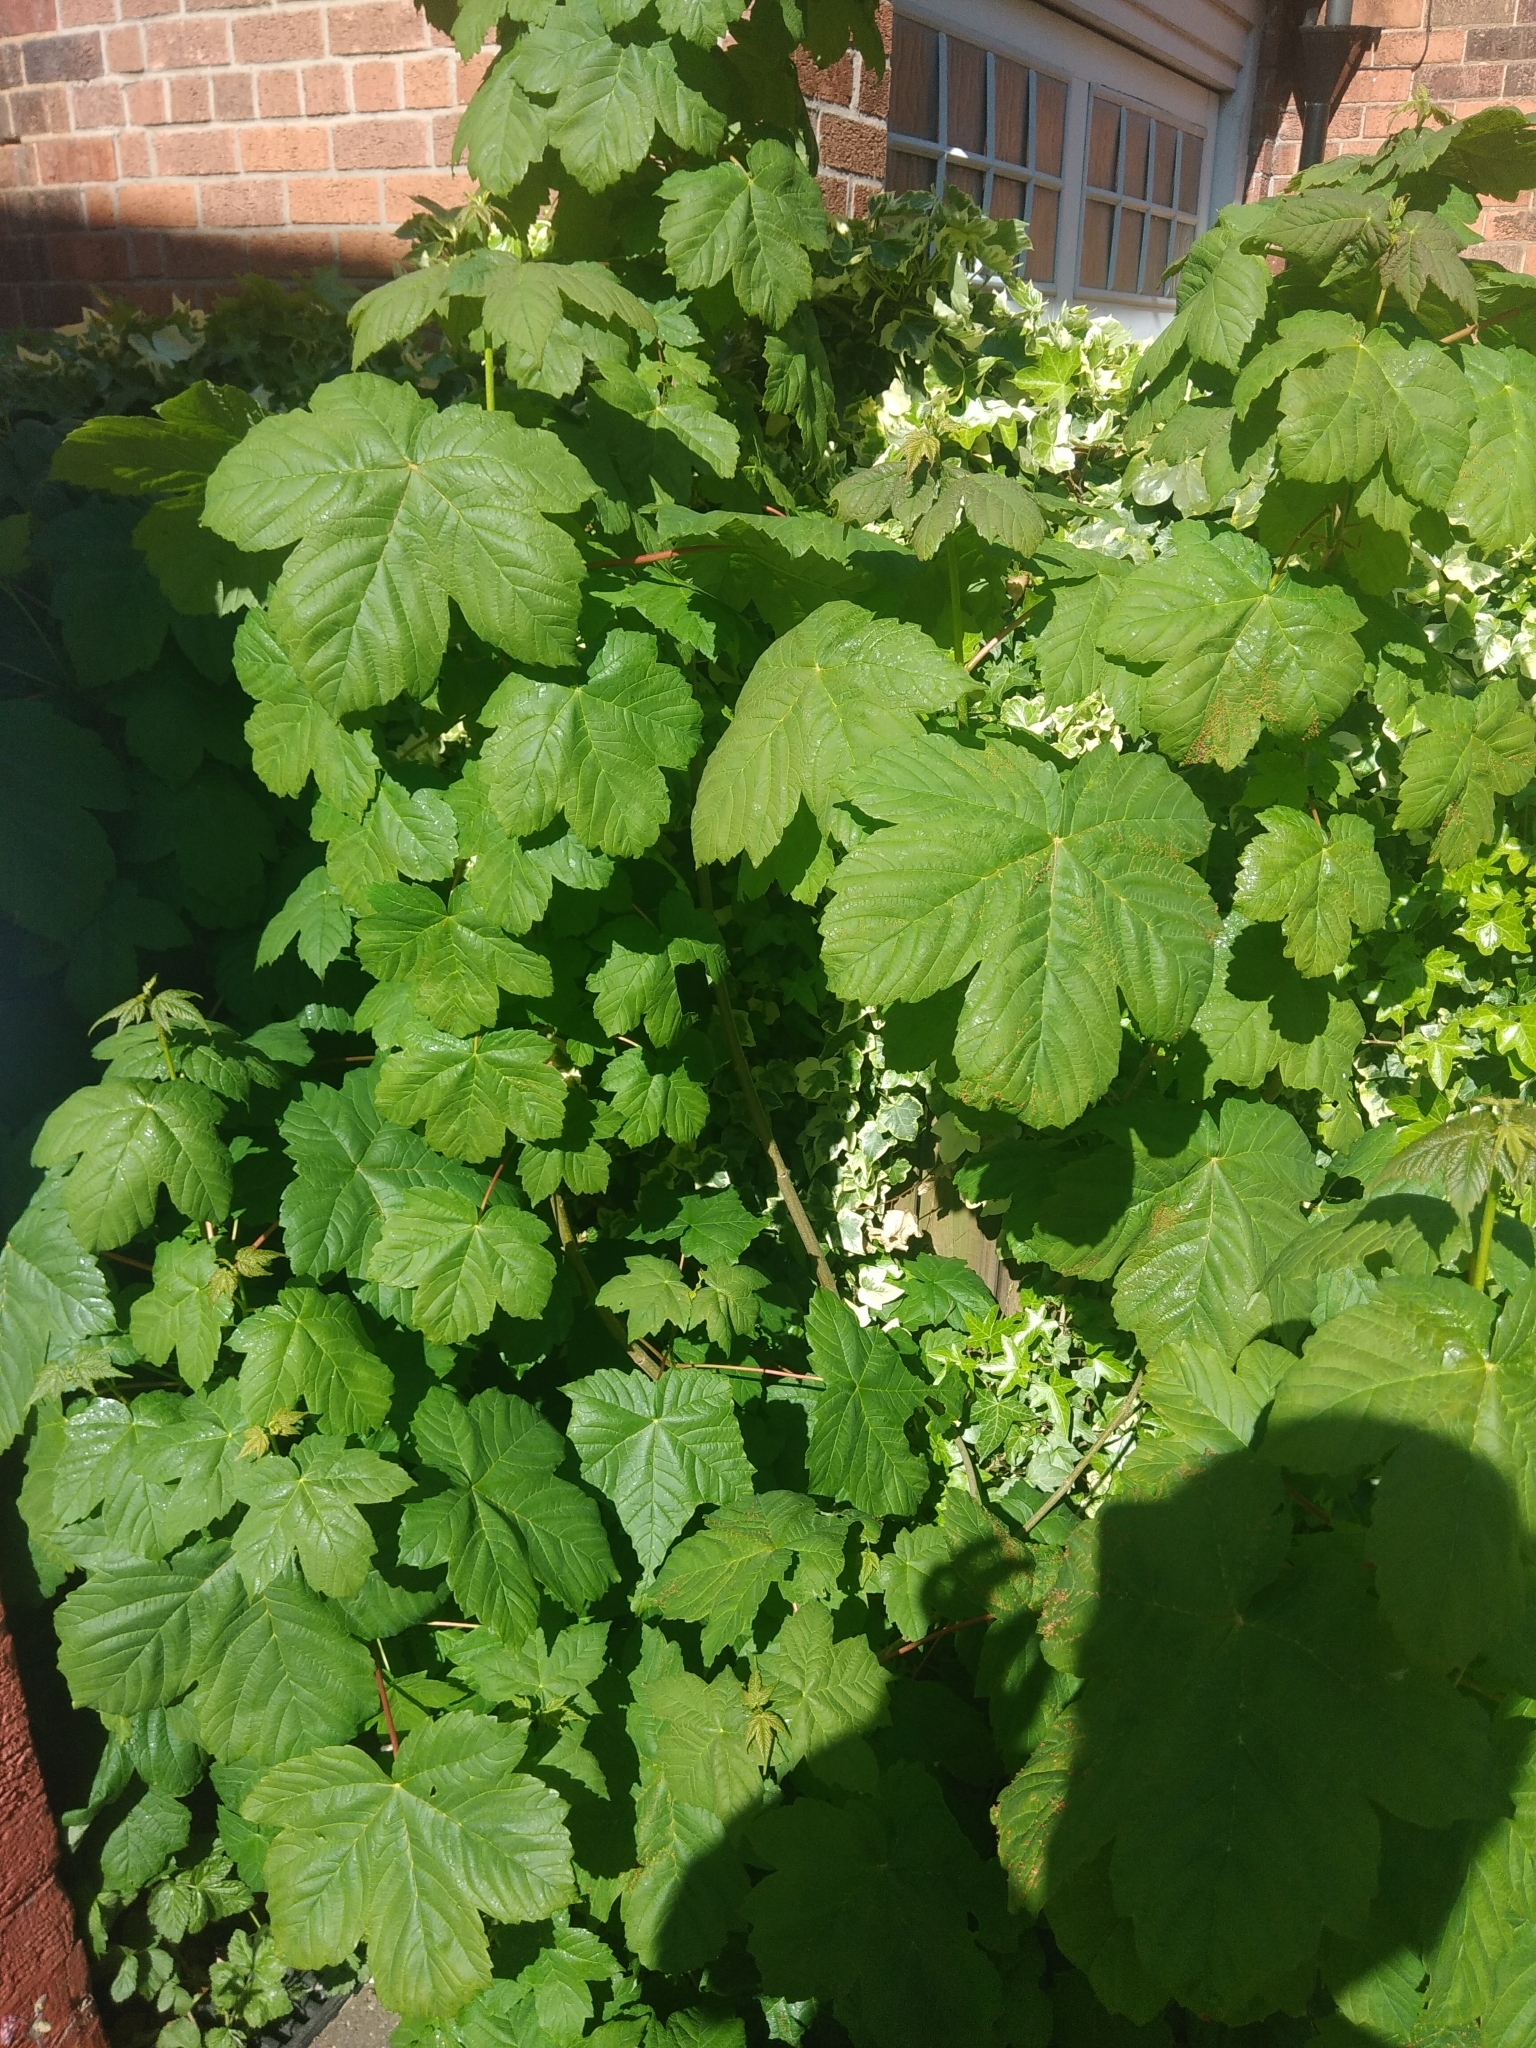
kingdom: Plantae
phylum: Tracheophyta
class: Magnoliopsida
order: Sapindales
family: Sapindaceae
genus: Acer
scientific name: Acer pseudoplatanus
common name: Sycamore
